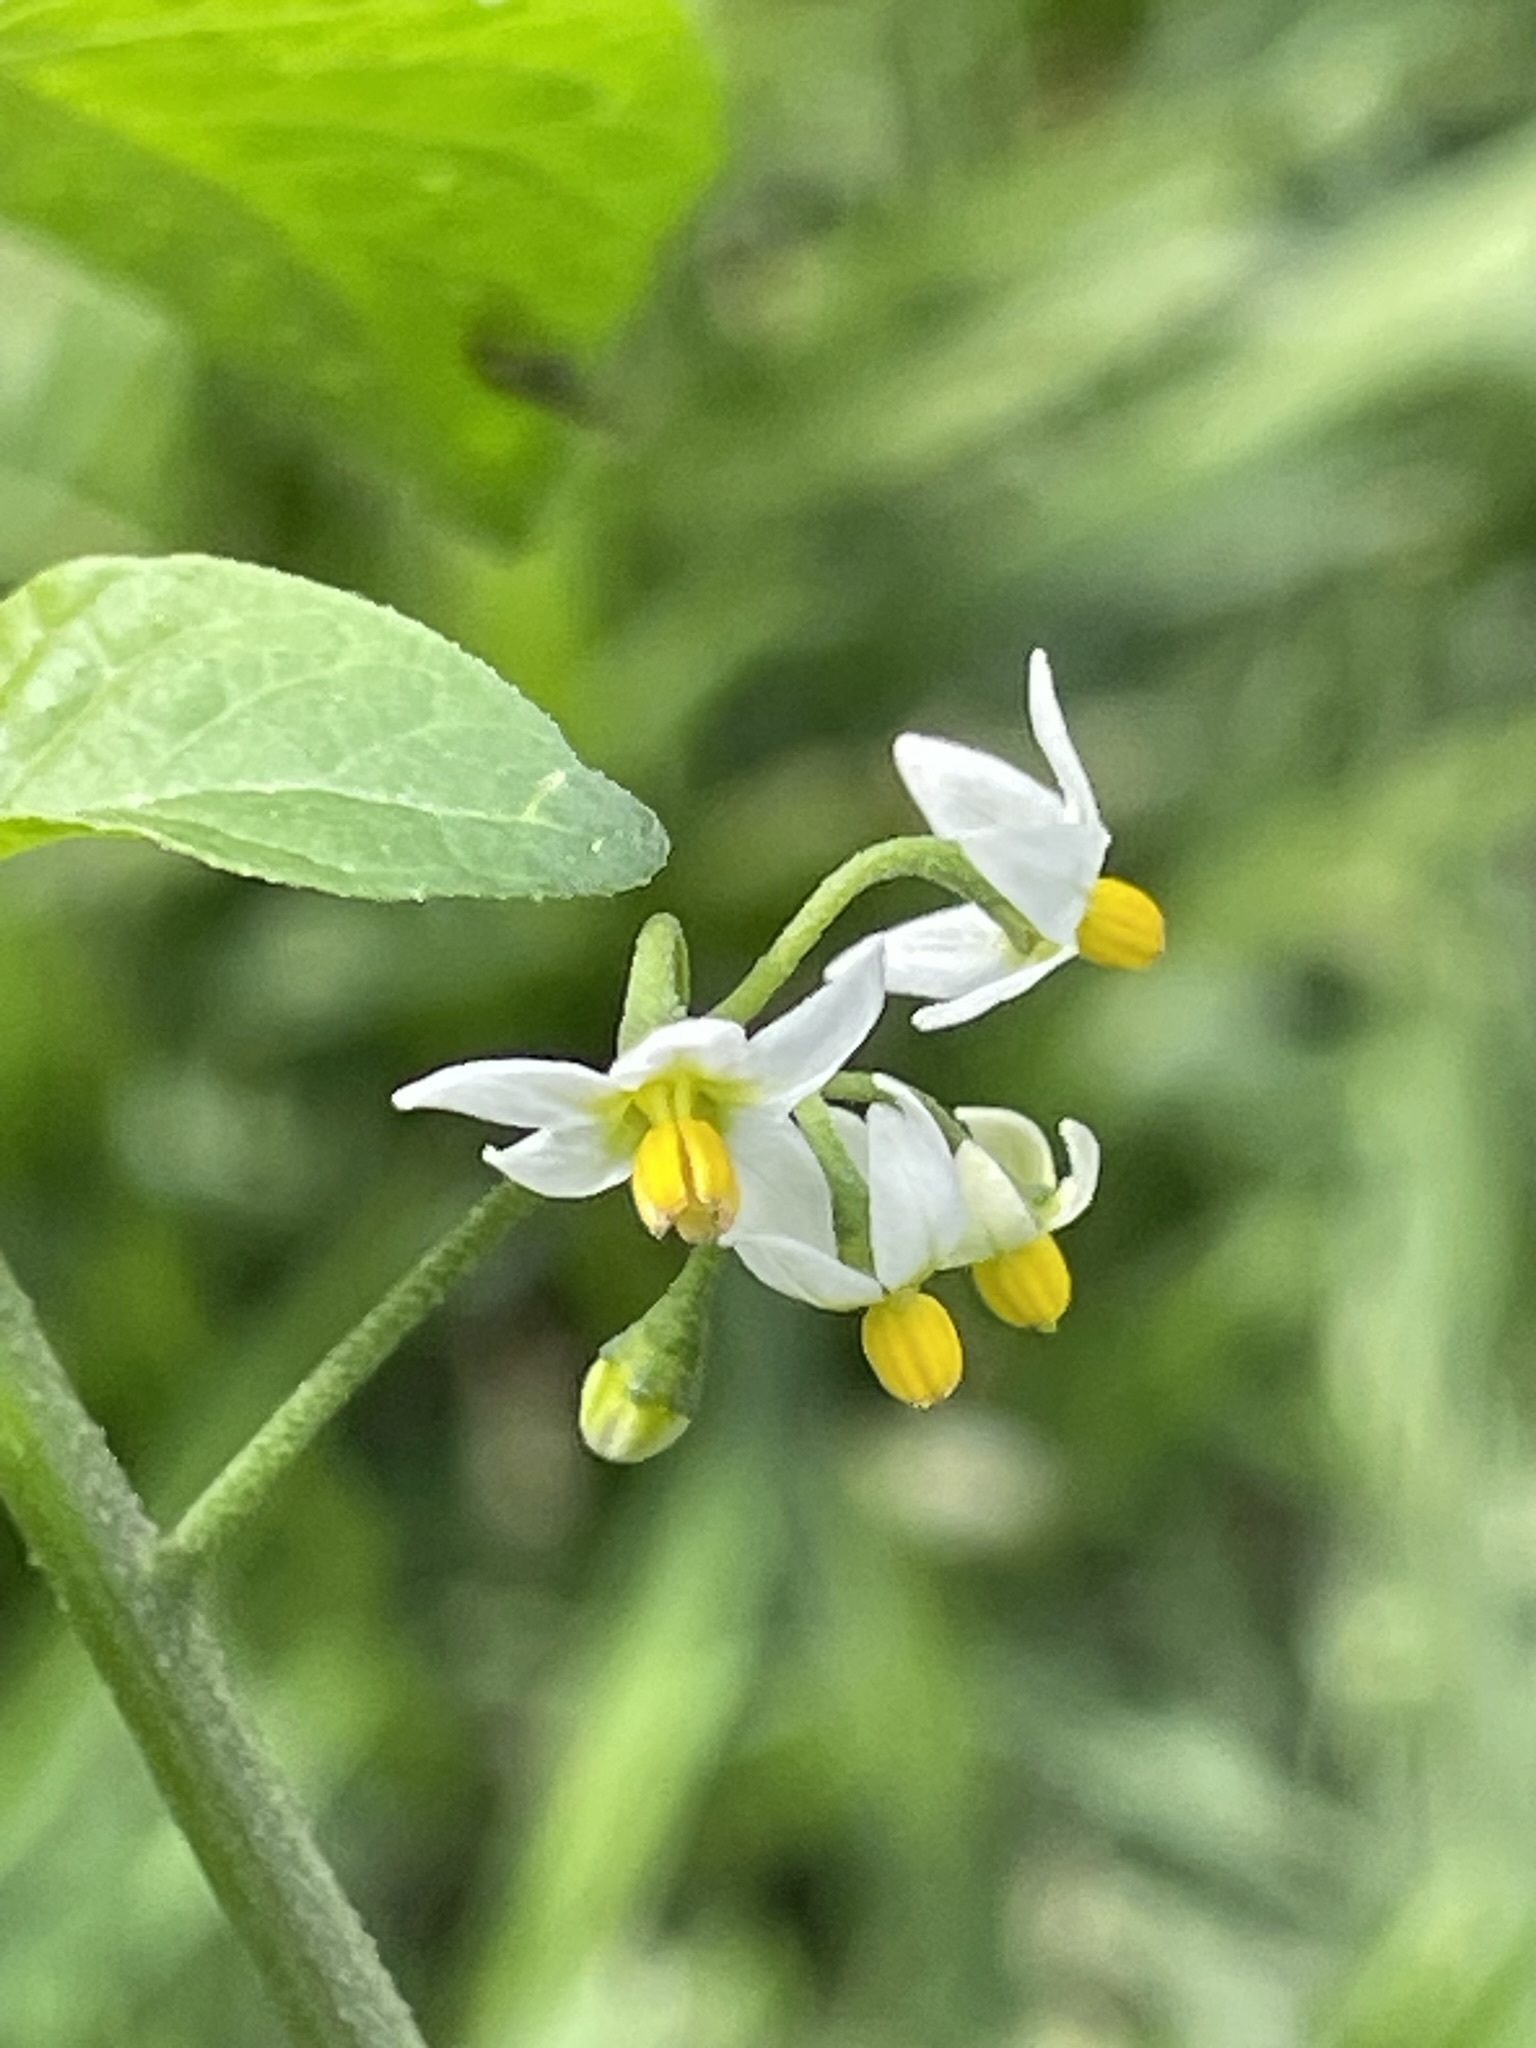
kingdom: Plantae
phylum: Tracheophyta
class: Magnoliopsida
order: Solanales
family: Solanaceae
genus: Solanum
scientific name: Solanum americanum
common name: American black nightshade
